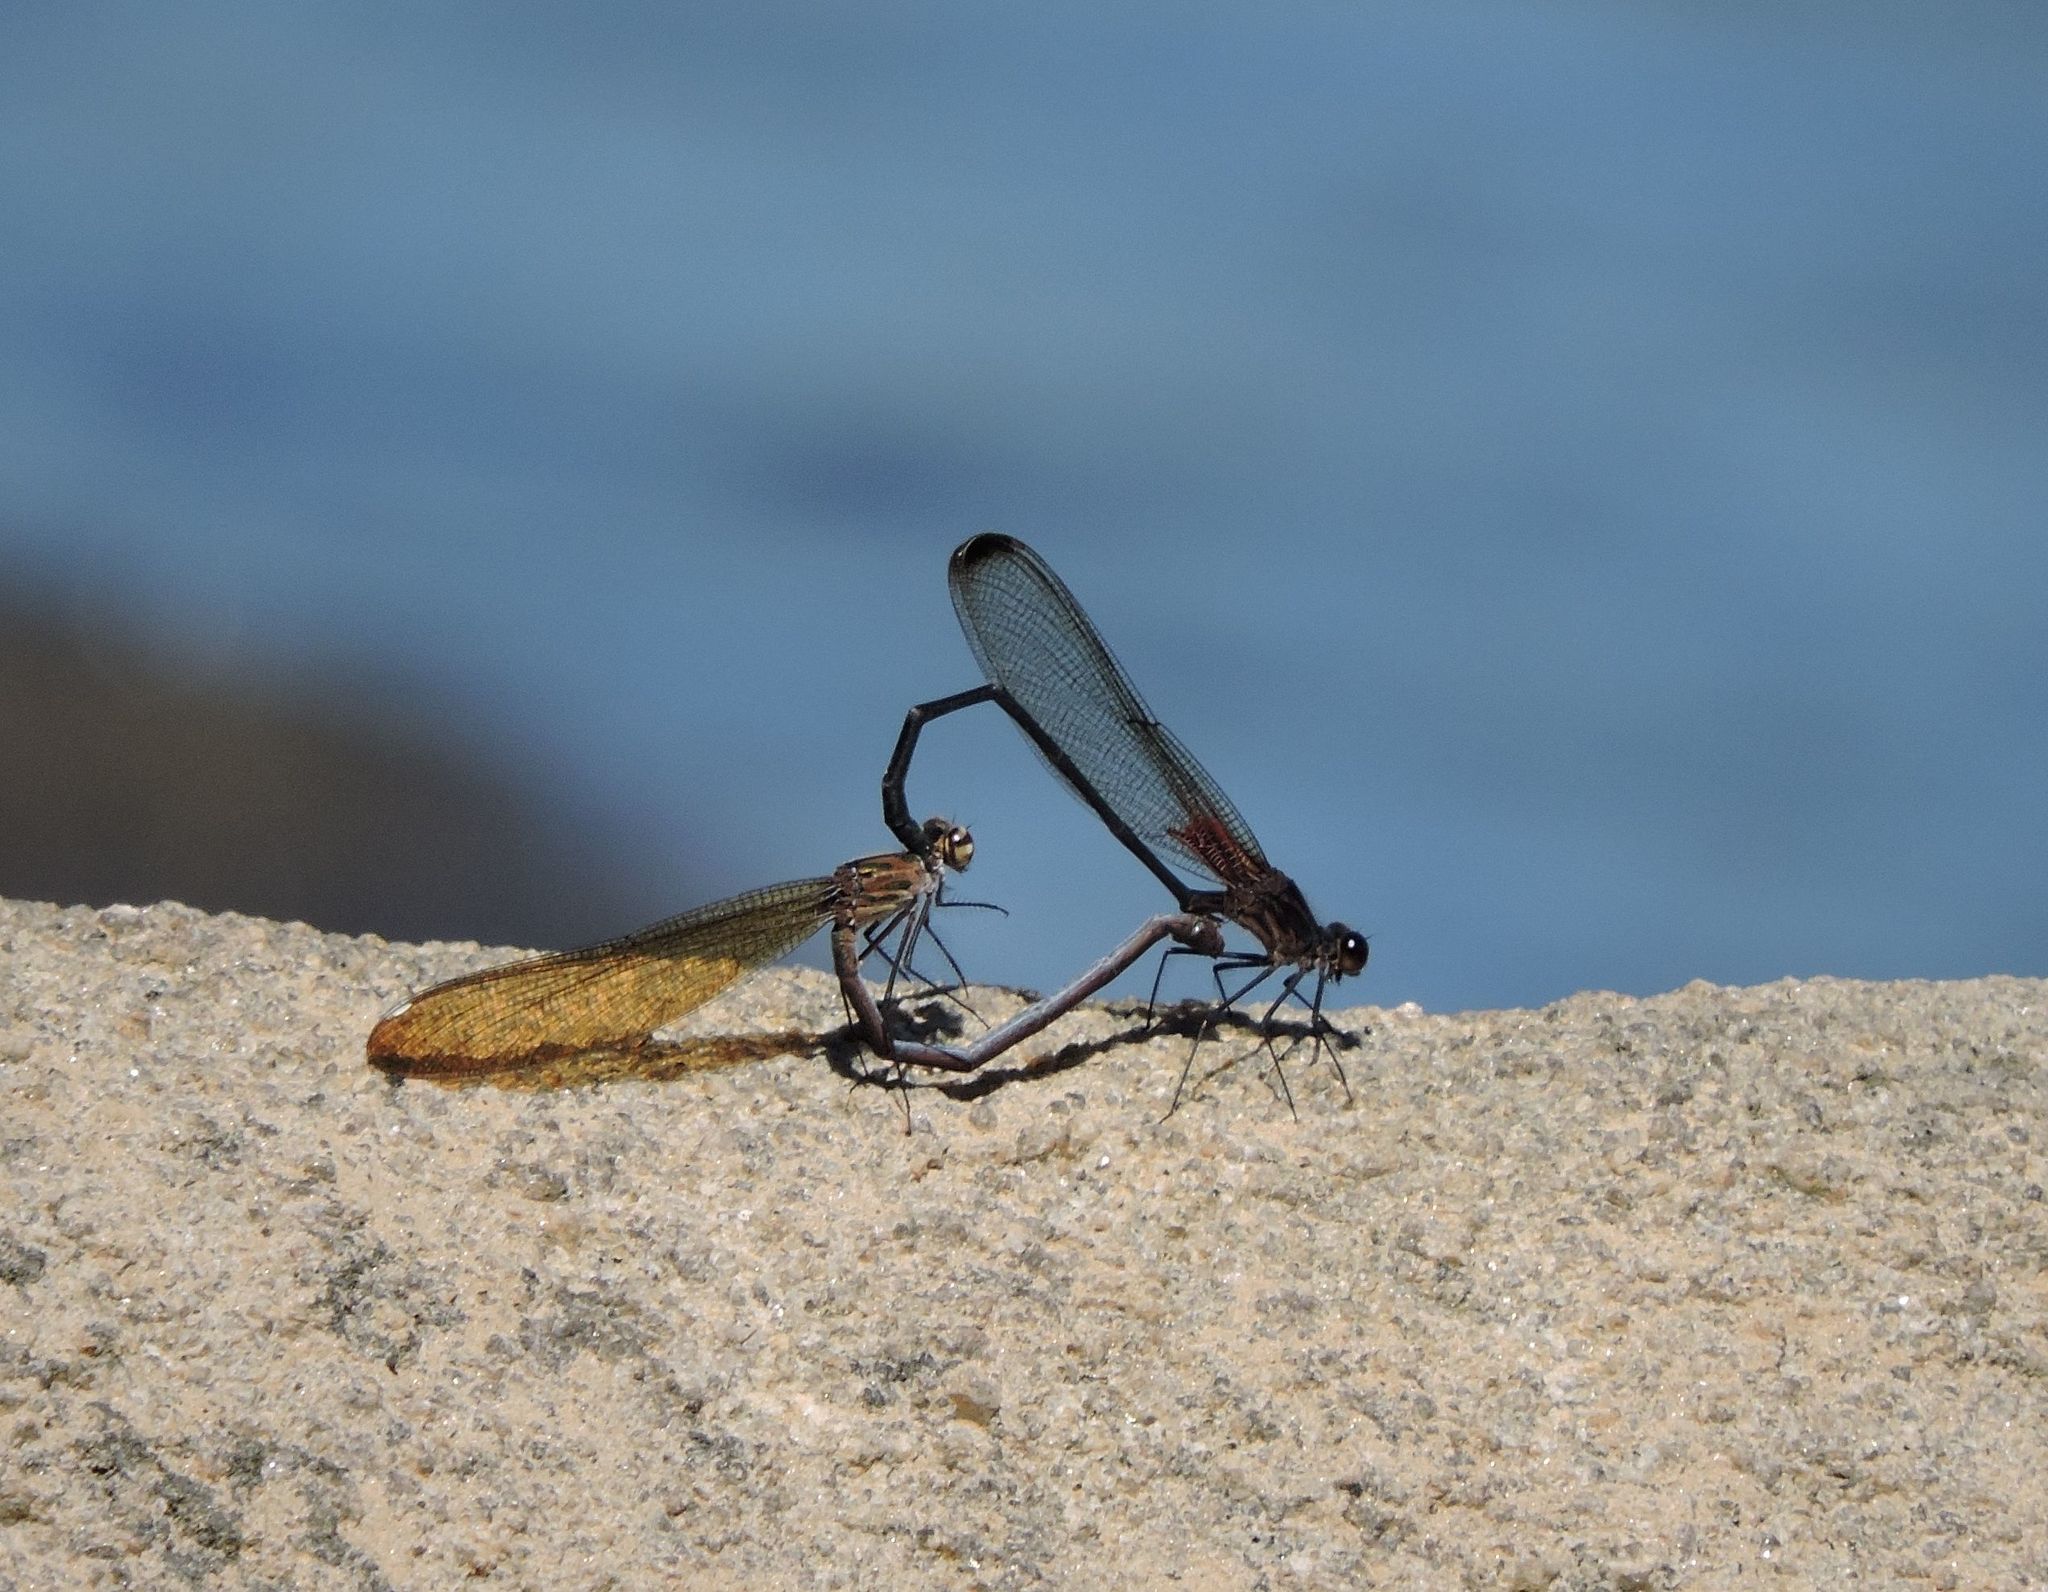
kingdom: Animalia
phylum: Arthropoda
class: Insecta
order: Odonata
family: Calopterygidae
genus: Hetaerina
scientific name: Hetaerina titia
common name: Smoky rubyspot
